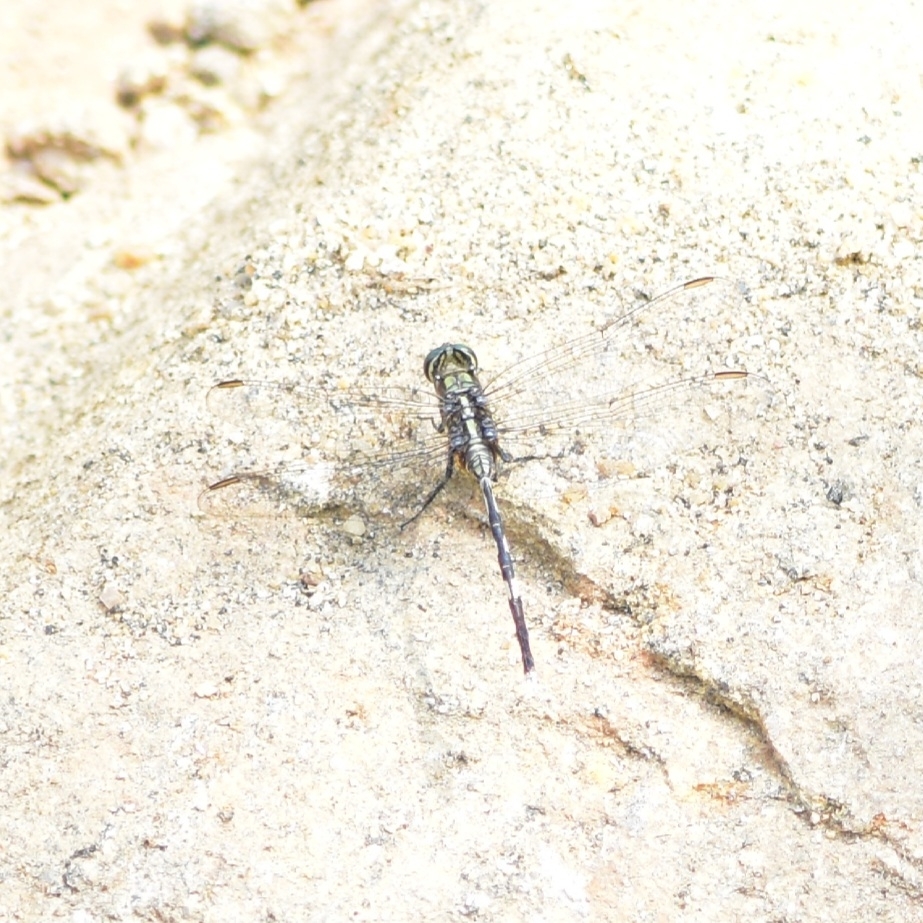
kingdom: Animalia
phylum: Arthropoda
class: Insecta
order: Odonata
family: Libellulidae
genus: Orthetrum
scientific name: Orthetrum sabina
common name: Slender skimmer
